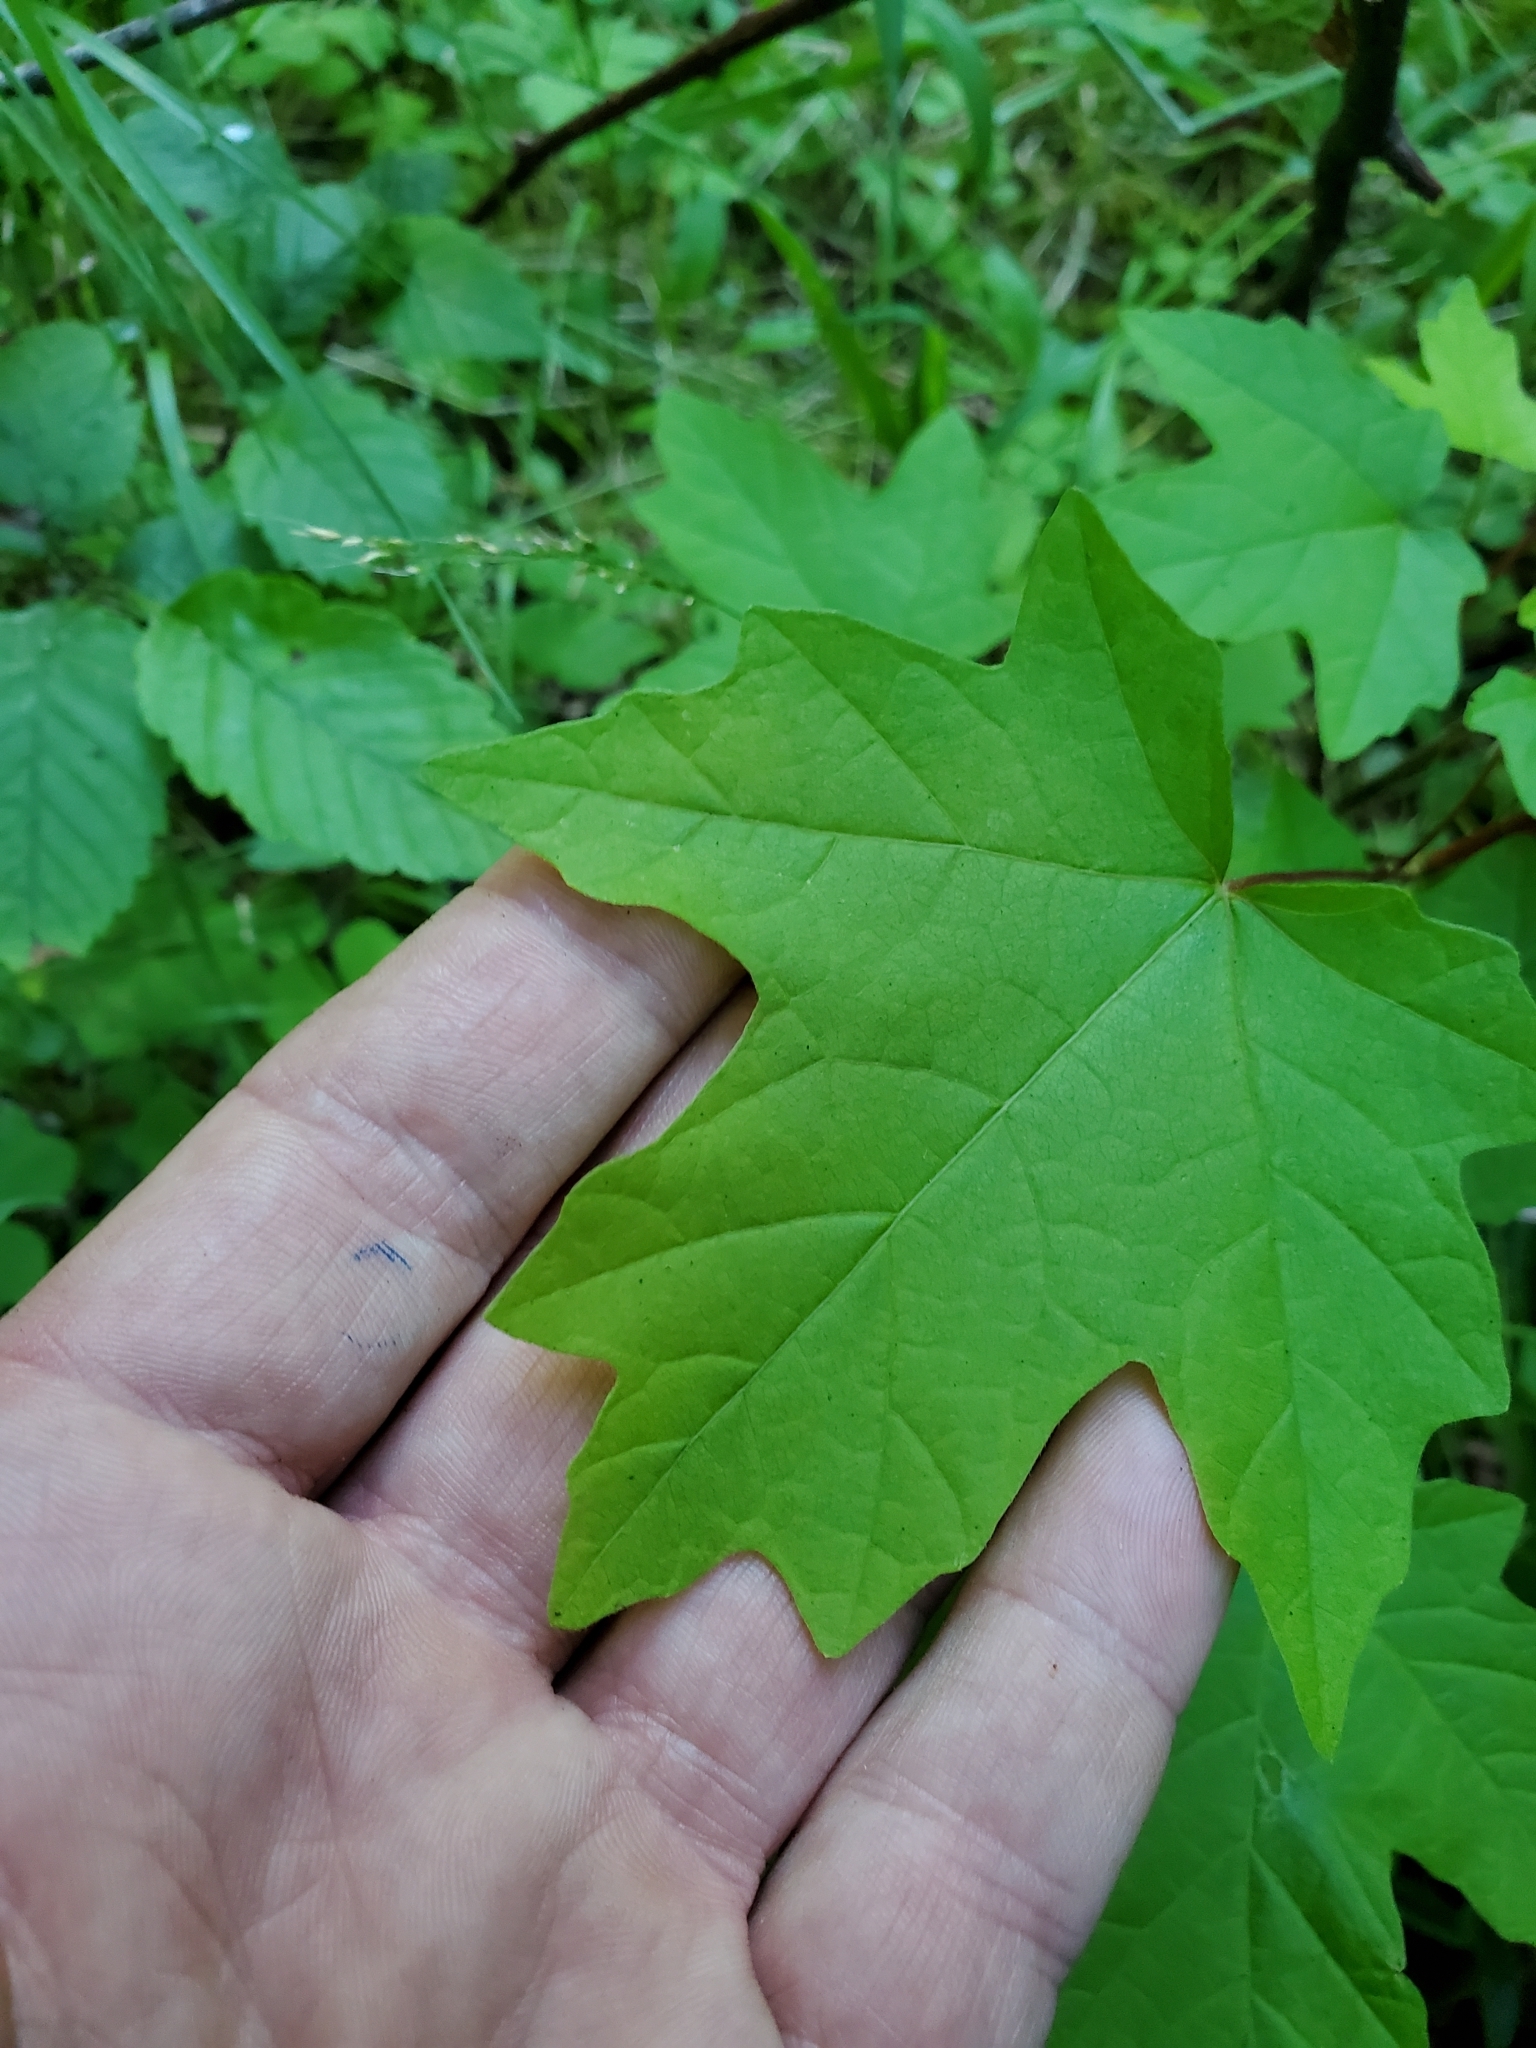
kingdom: Plantae
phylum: Tracheophyta
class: Magnoliopsida
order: Sapindales
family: Sapindaceae
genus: Acer
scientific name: Acer macrophyllum
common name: Oregon maple
